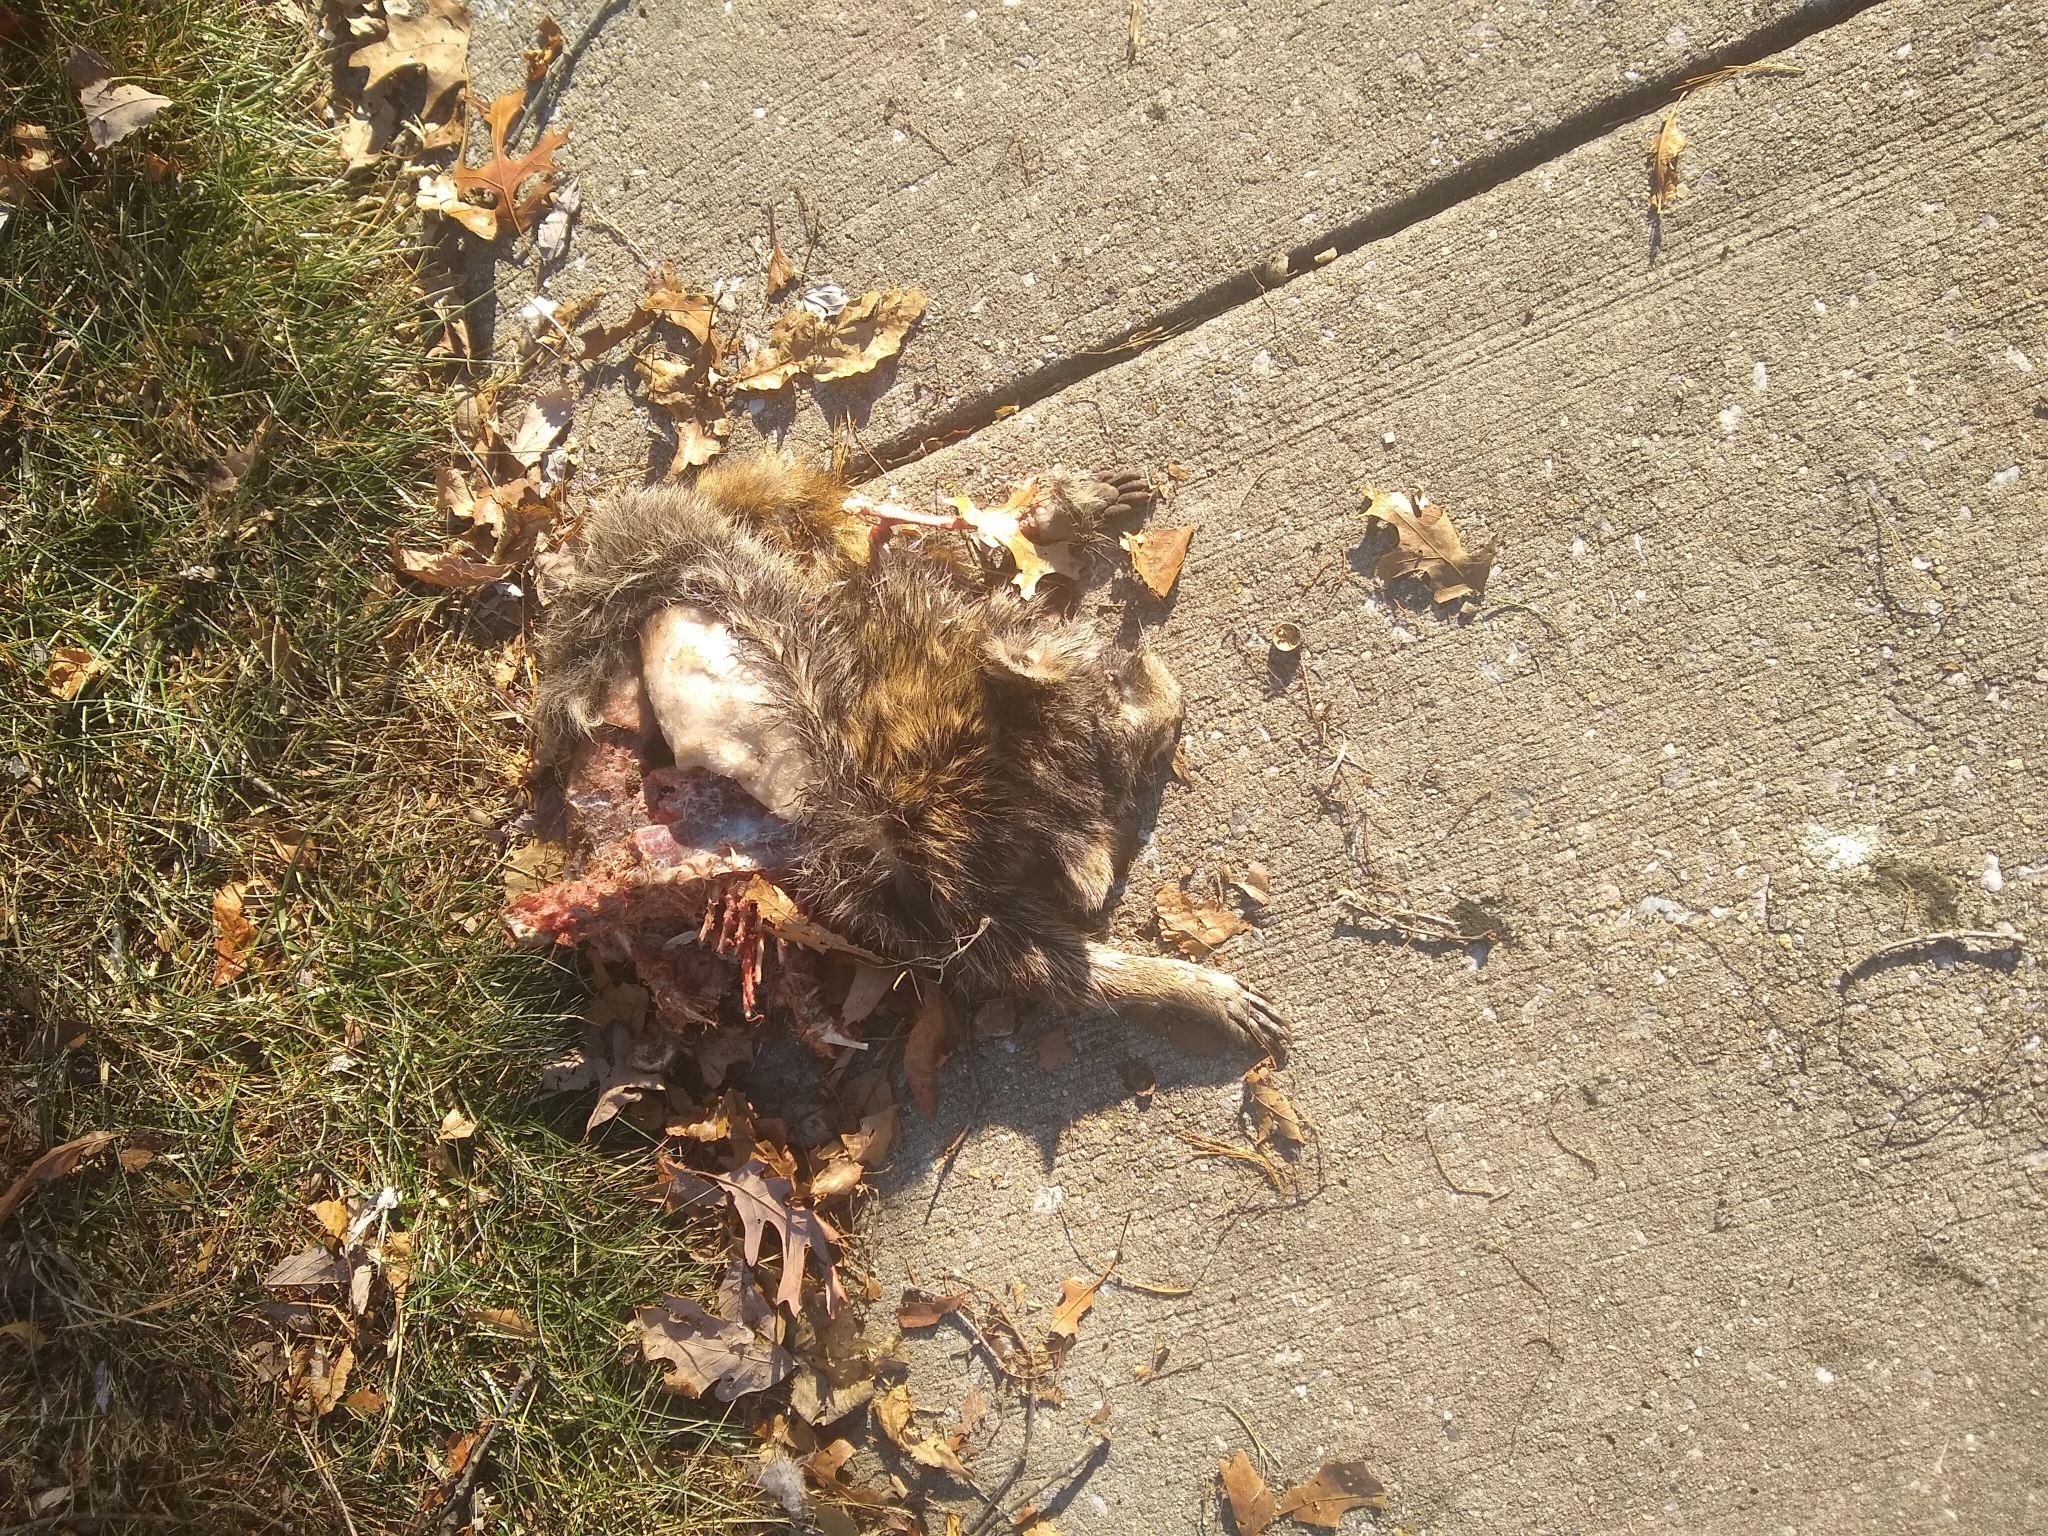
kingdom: Animalia
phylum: Chordata
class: Mammalia
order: Carnivora
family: Procyonidae
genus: Procyon
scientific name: Procyon lotor
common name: Raccoon
